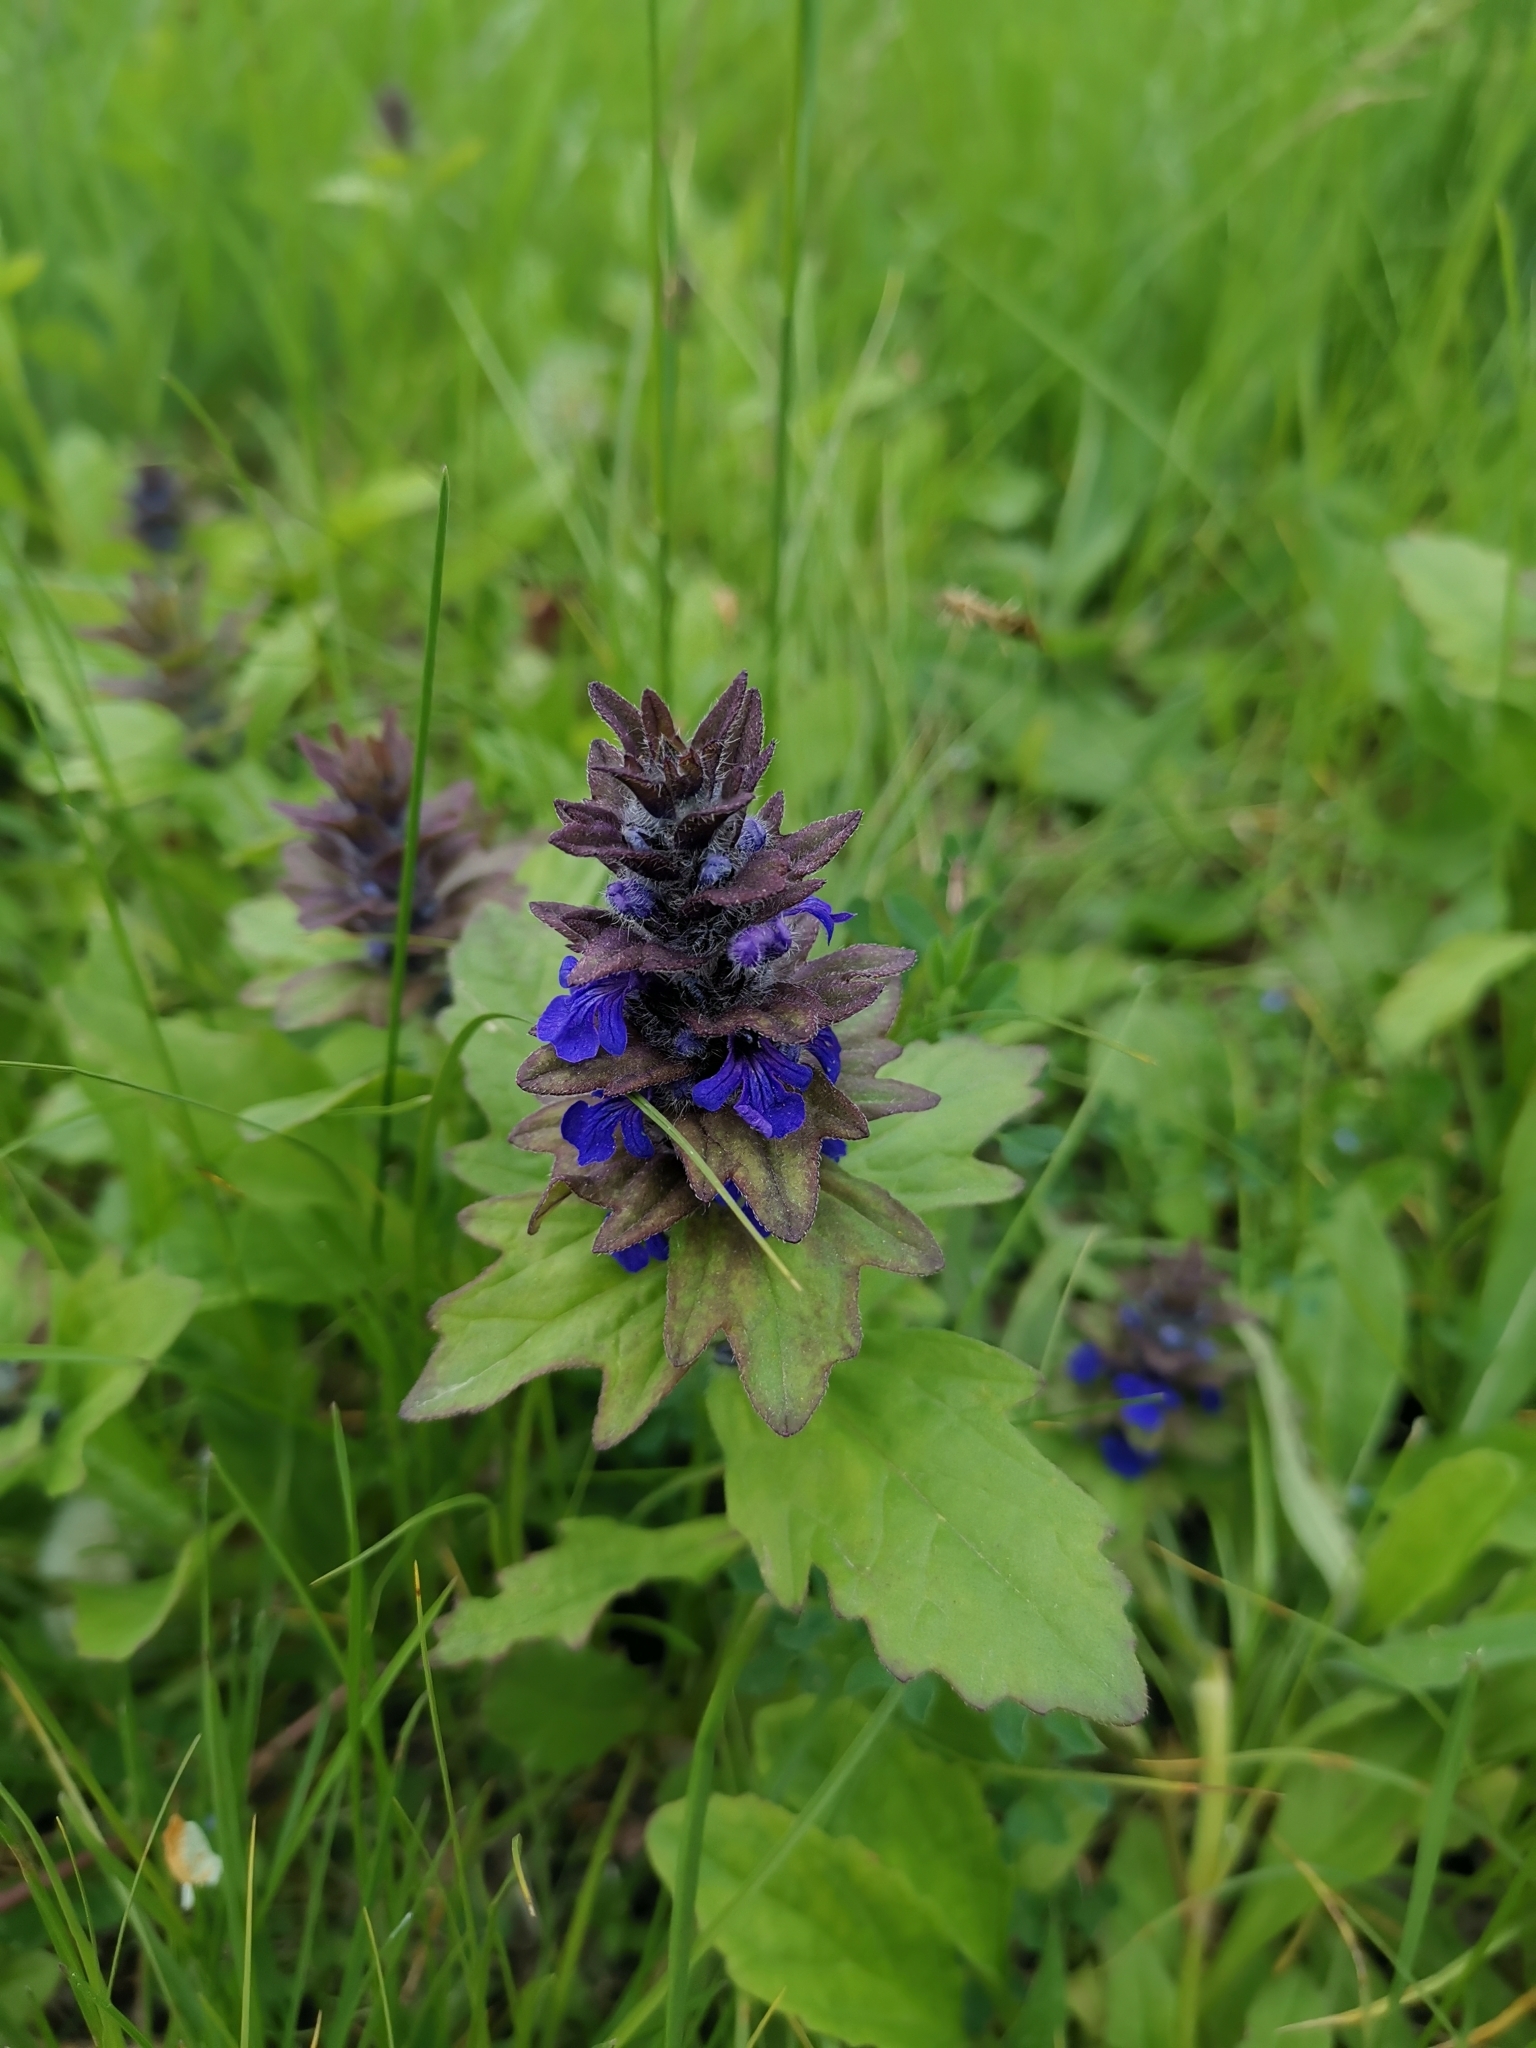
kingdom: Plantae
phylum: Tracheophyta
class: Magnoliopsida
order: Lamiales
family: Lamiaceae
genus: Ajuga
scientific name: Ajuga genevensis
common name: Blue bugle
